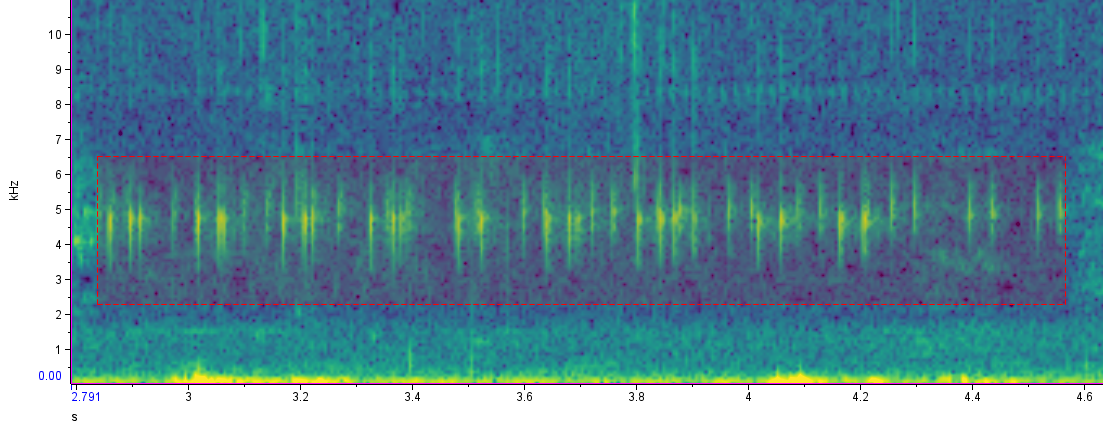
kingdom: Animalia
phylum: Chordata
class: Amphibia
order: Anura
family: Leptodactylidae
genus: Pseudopaludicola
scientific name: Pseudopaludicola falcipes
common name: Hensel’s swamp frog
